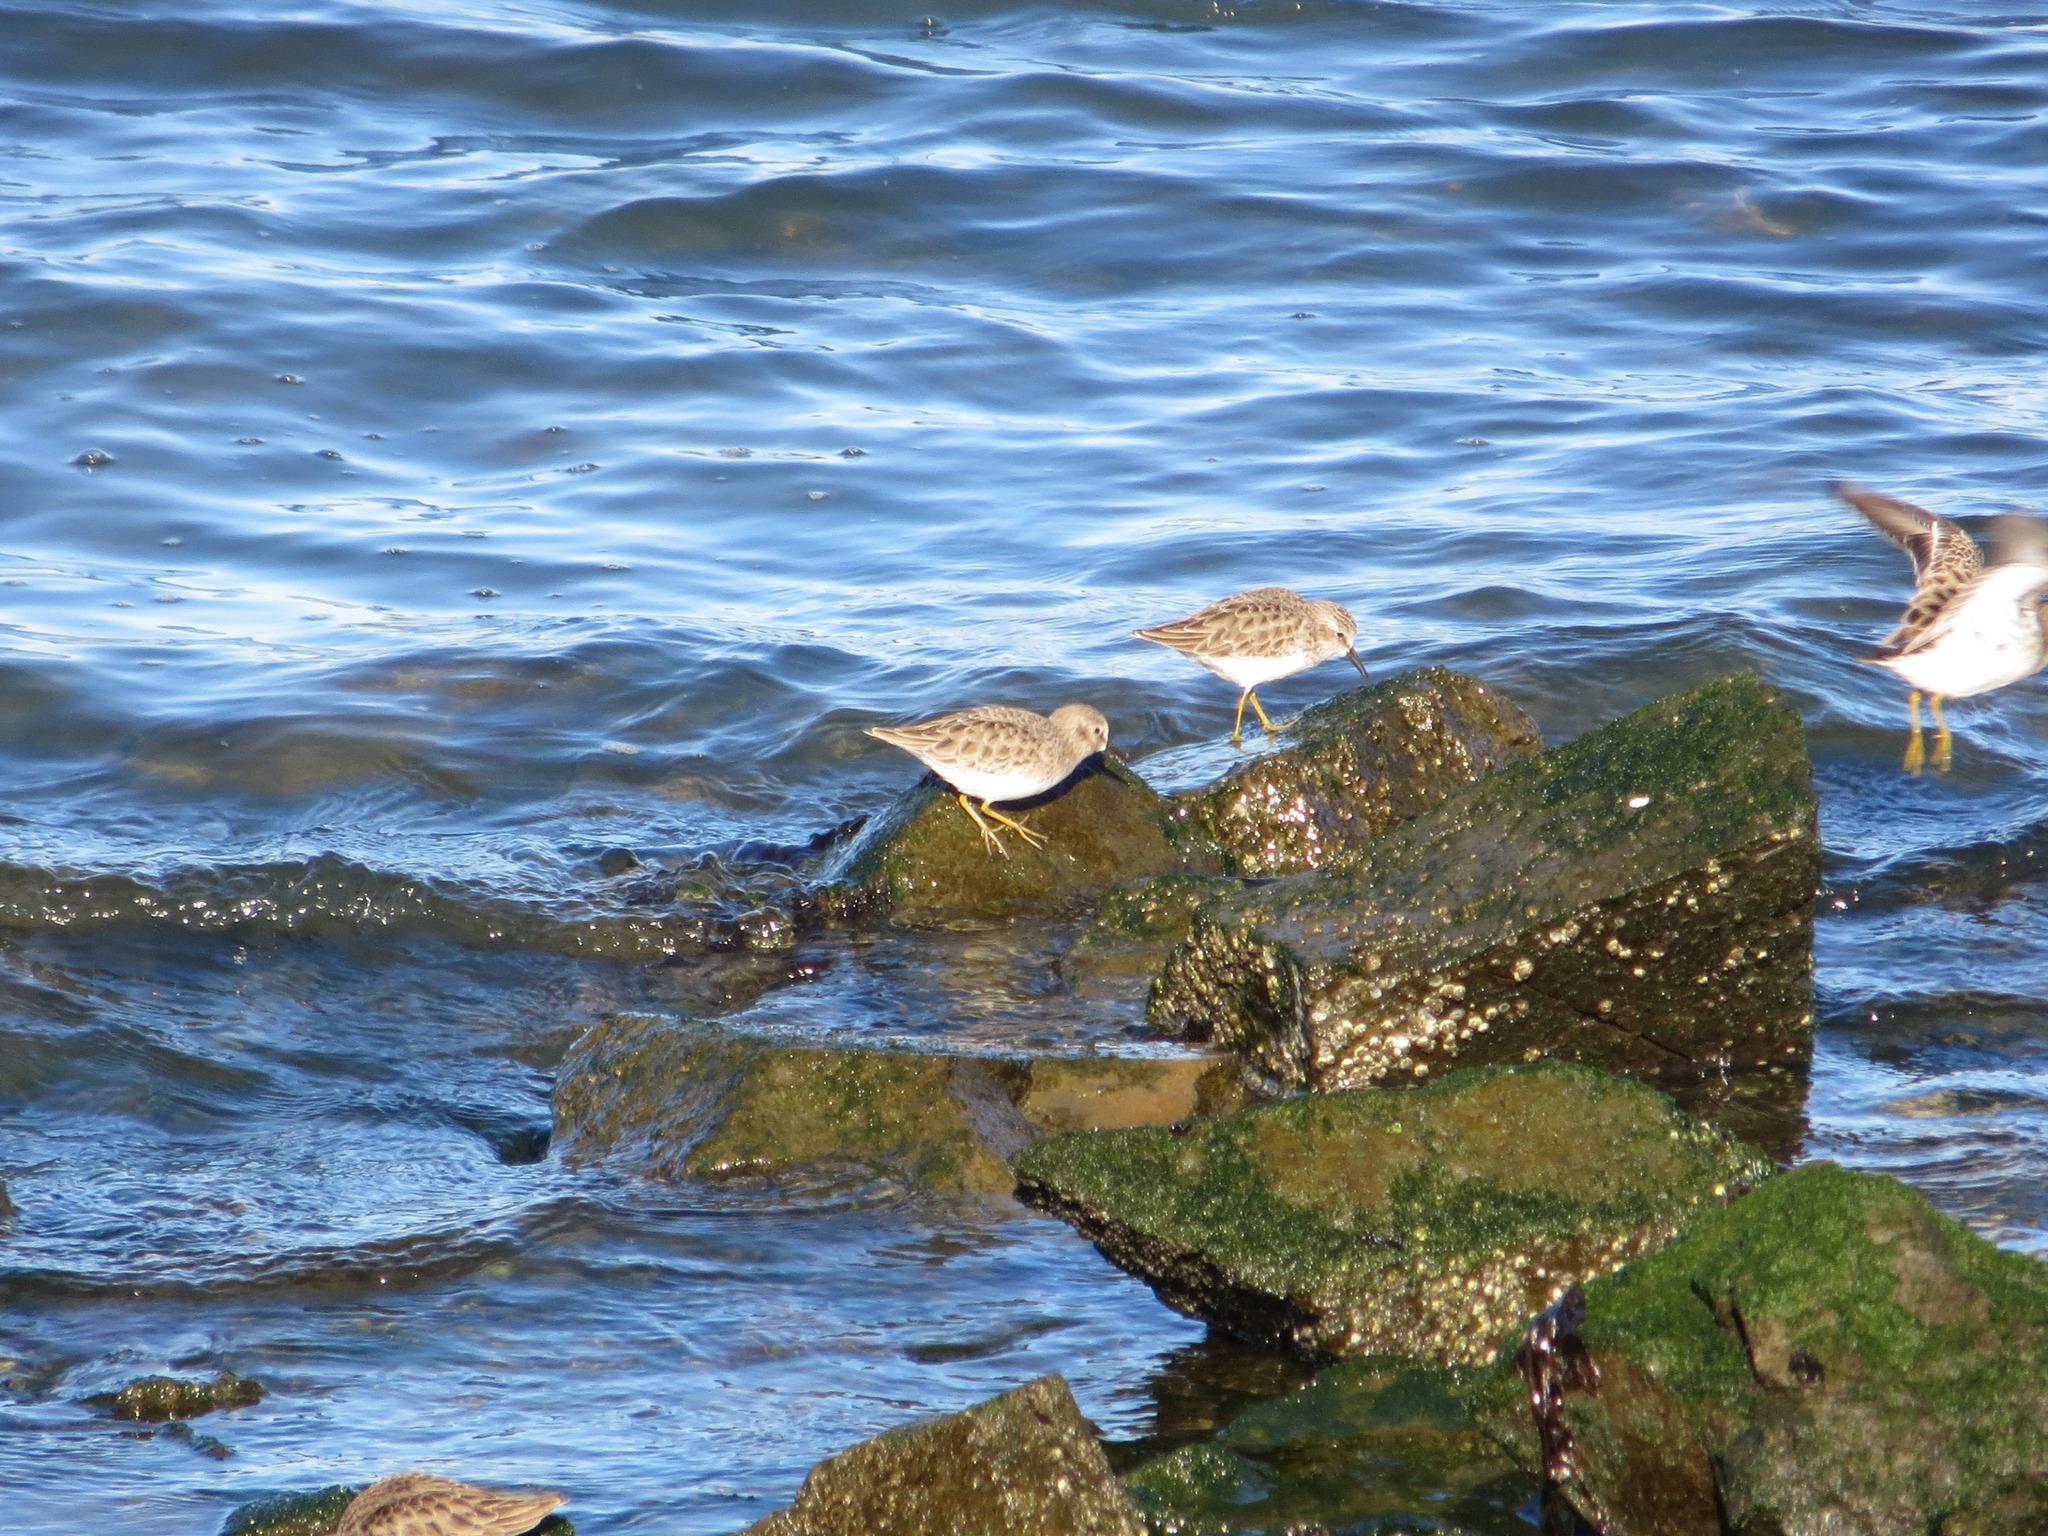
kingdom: Animalia
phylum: Chordata
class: Aves
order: Charadriiformes
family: Scolopacidae
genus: Calidris
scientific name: Calidris minutilla
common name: Least sandpiper
